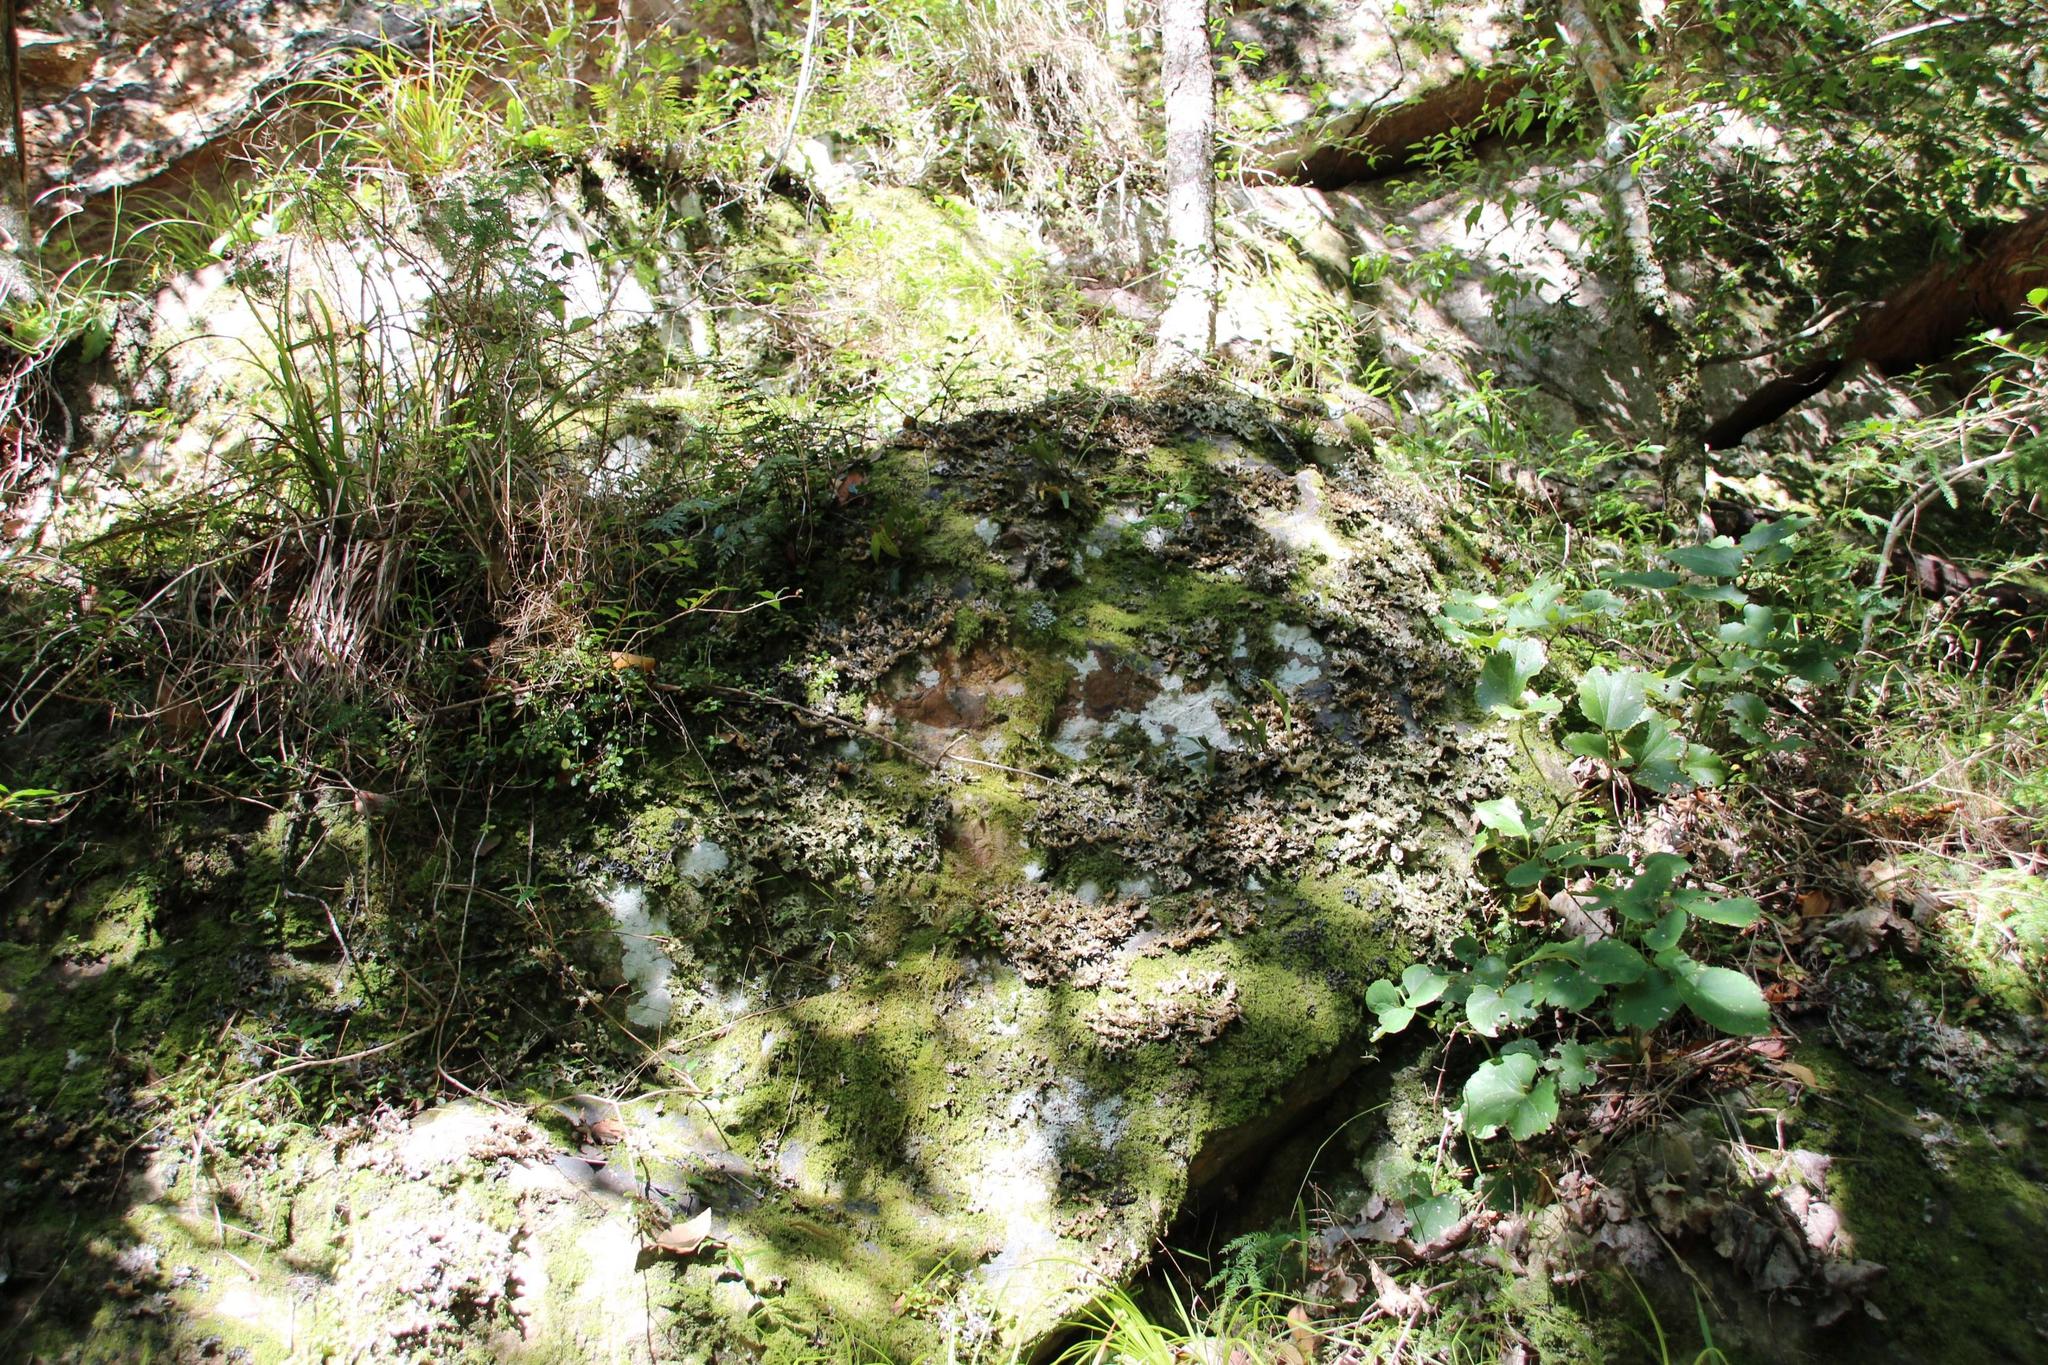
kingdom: Fungi
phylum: Ascomycota
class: Lecanoromycetes
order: Peltigerales
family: Lobariaceae
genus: Lobaria
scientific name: Lobaria pulmonaria
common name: Lungwort
